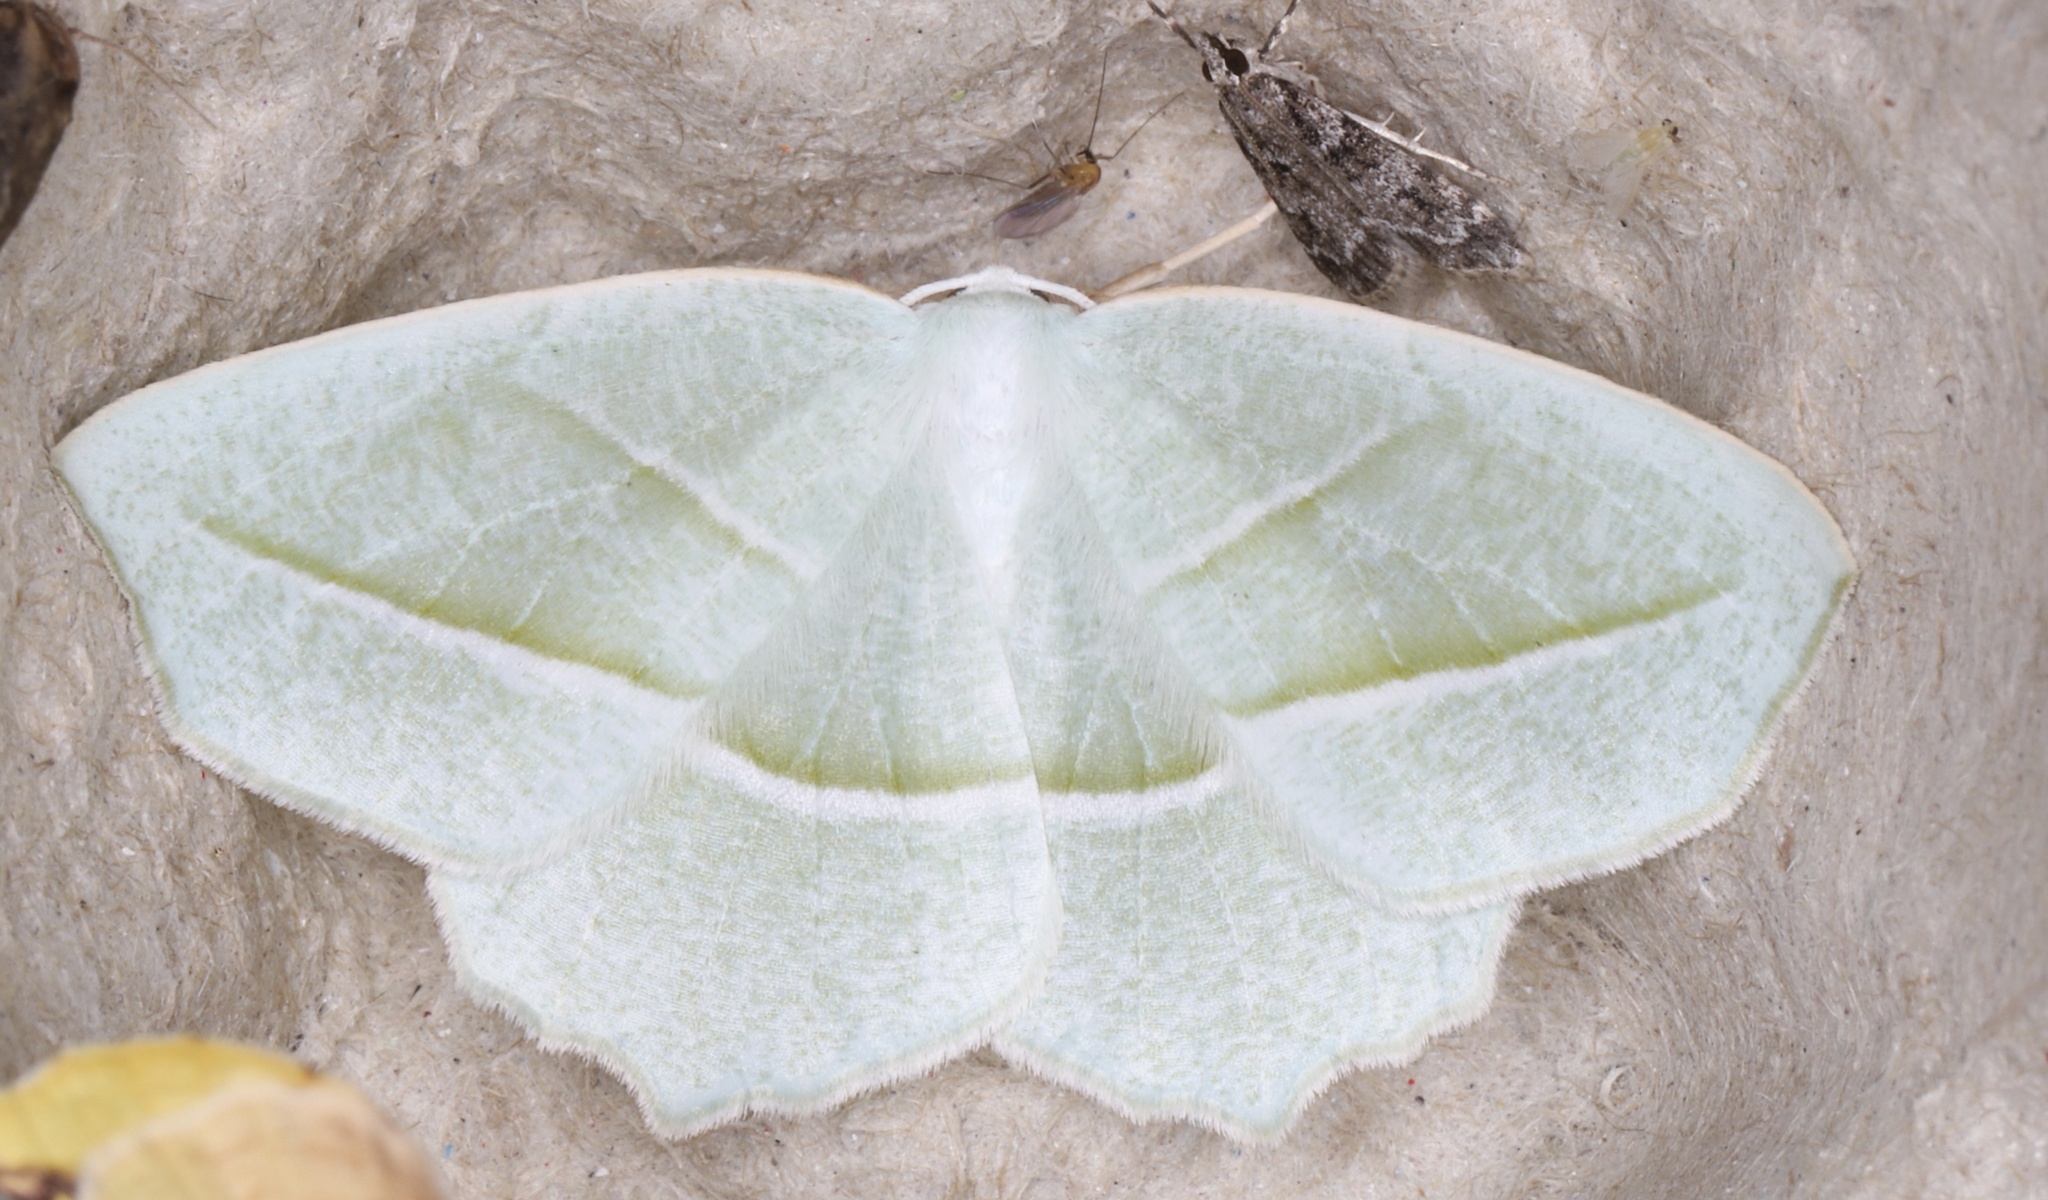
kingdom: Animalia
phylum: Arthropoda
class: Insecta
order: Lepidoptera
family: Geometridae
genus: Campaea
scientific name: Campaea perlata
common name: Fringed looper
